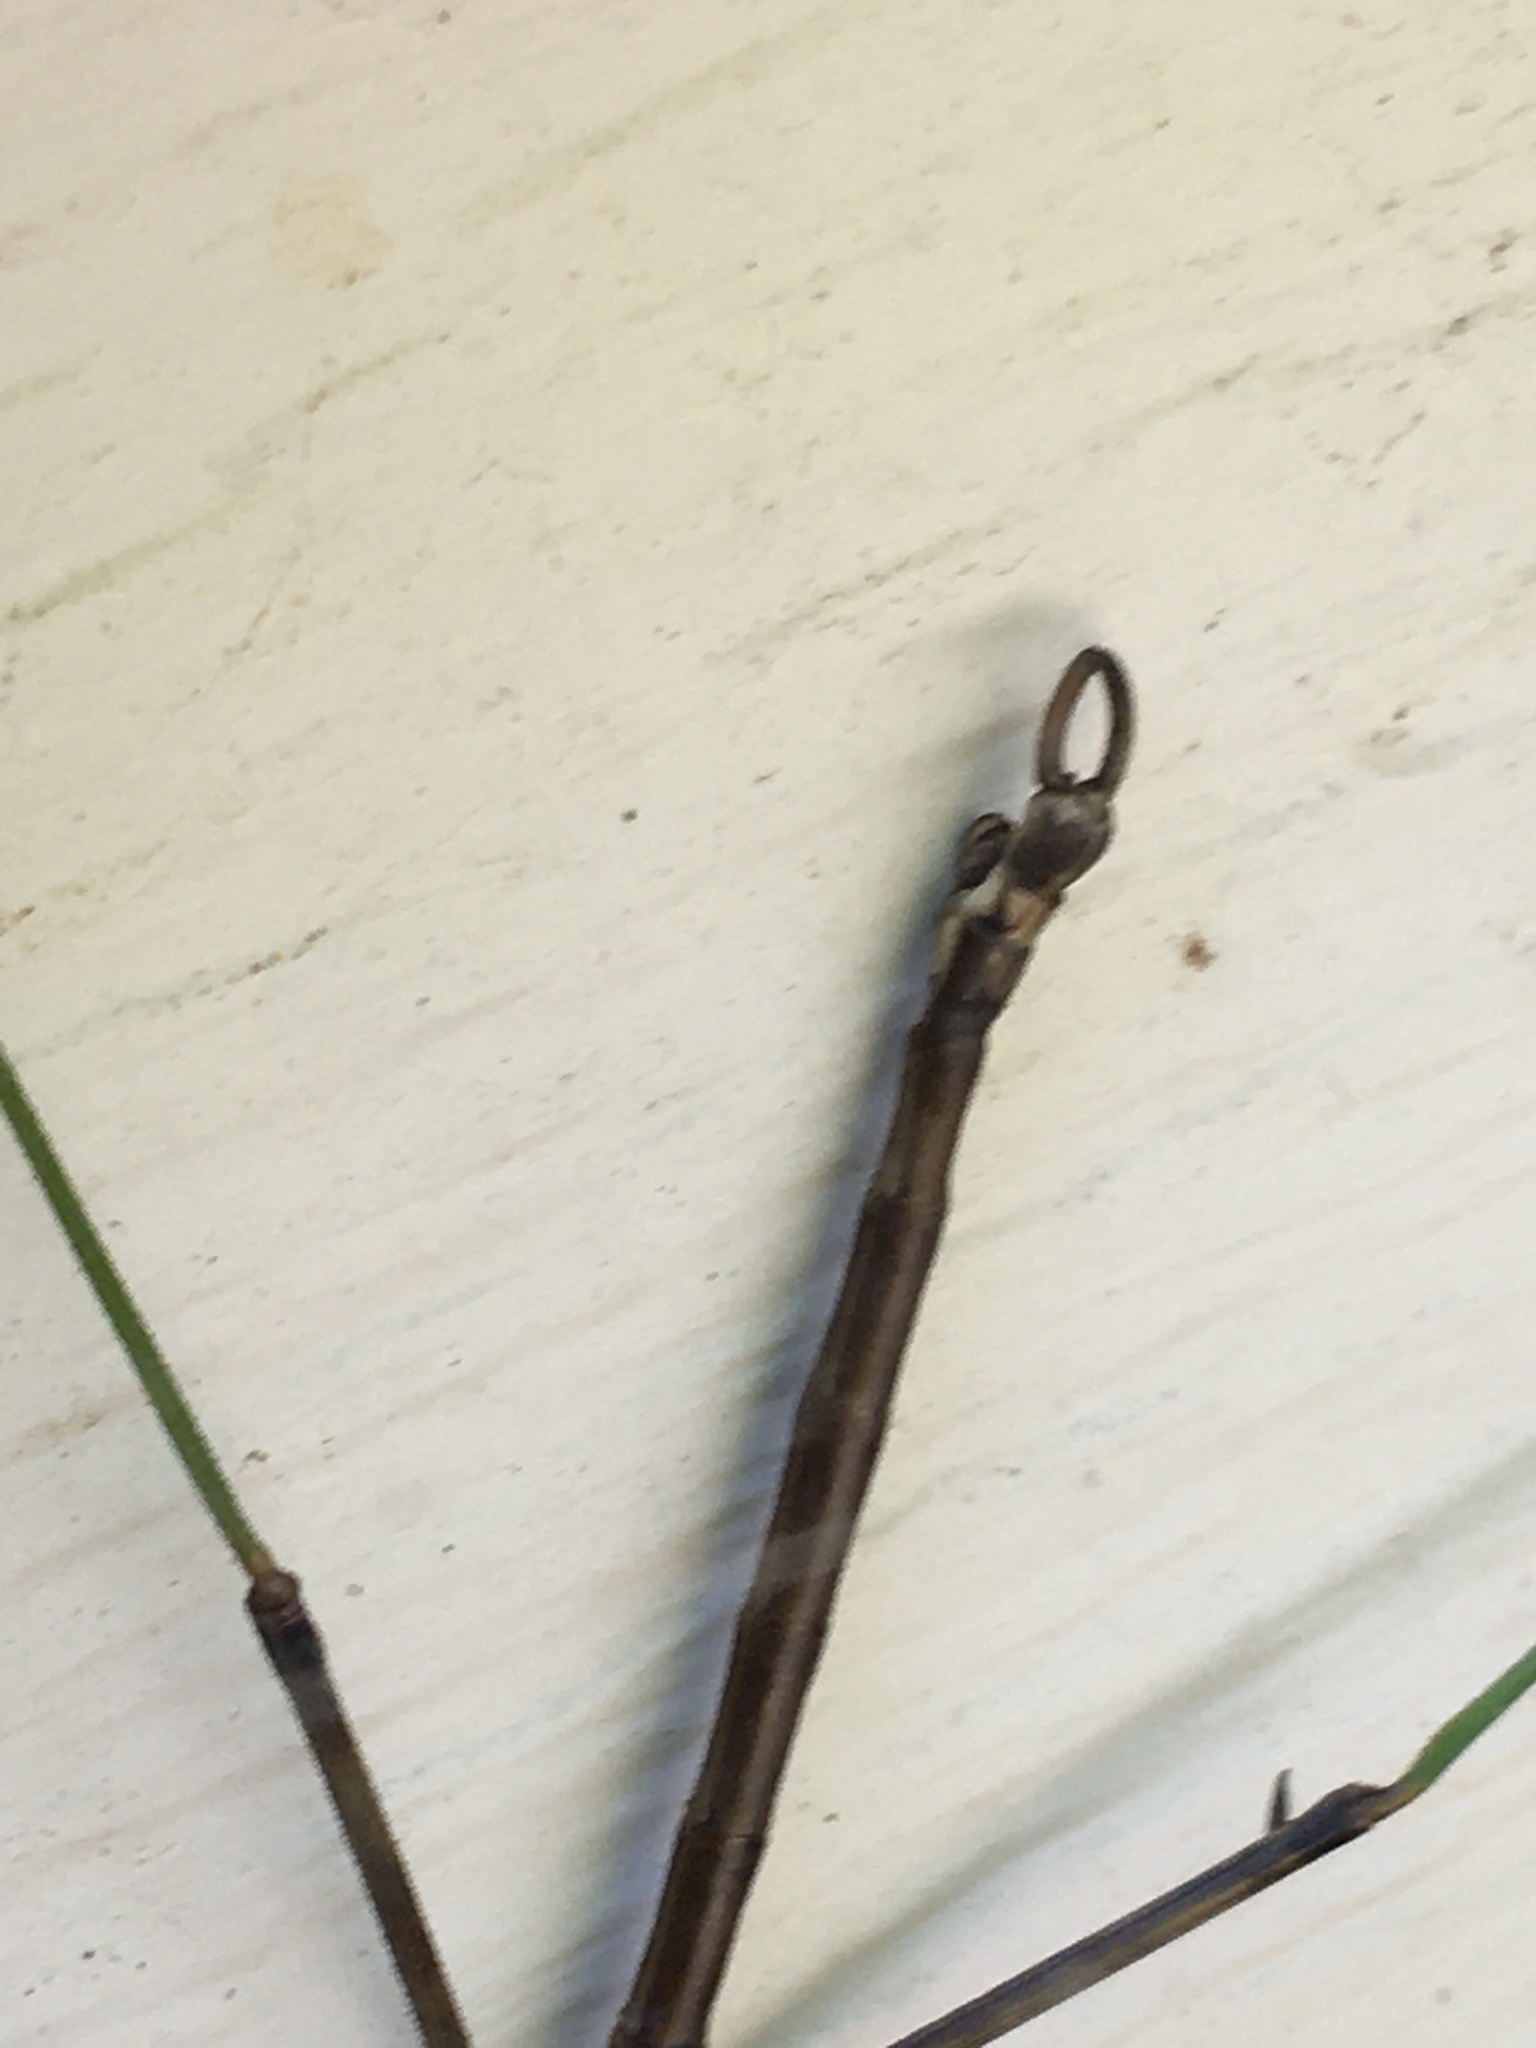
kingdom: Animalia
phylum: Arthropoda
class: Insecta
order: Phasmida
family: Diapheromeridae
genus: Diapheromera
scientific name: Diapheromera femorata
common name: Common american walkingstick
